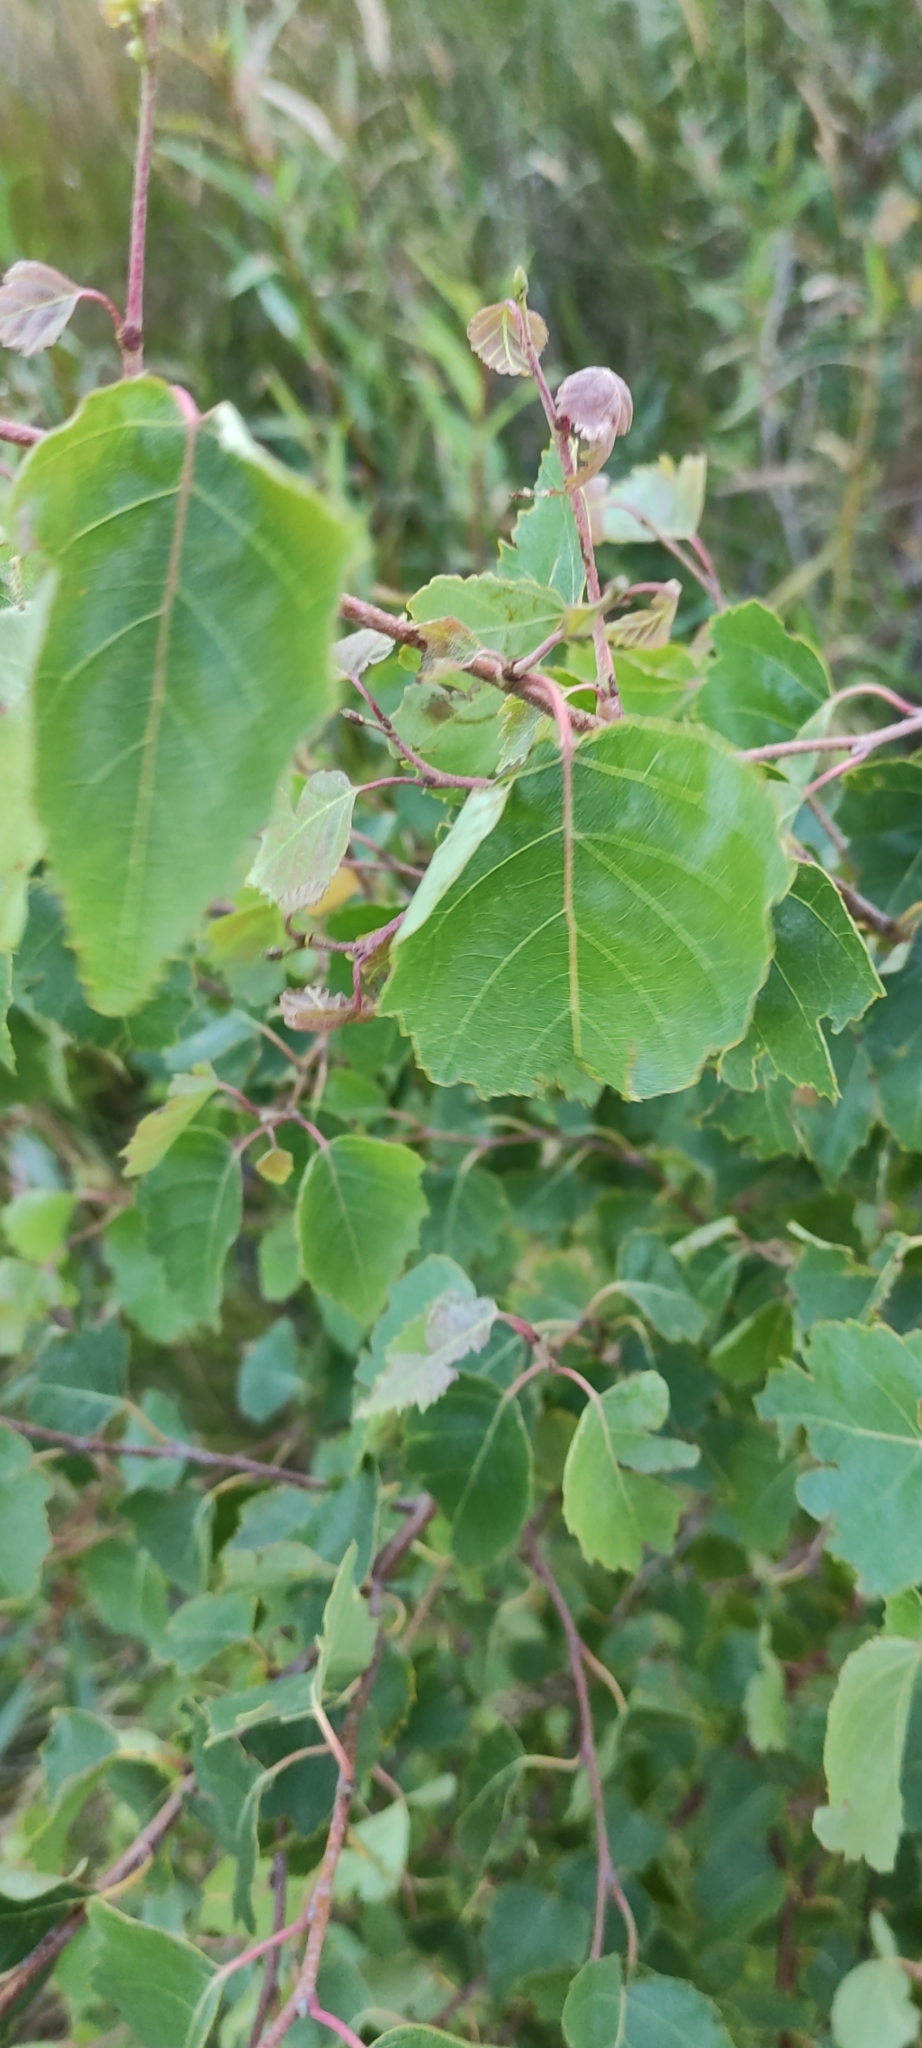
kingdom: Plantae
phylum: Tracheophyta
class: Magnoliopsida
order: Fagales
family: Betulaceae
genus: Betula
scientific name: Betula pendula
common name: Silver birch
